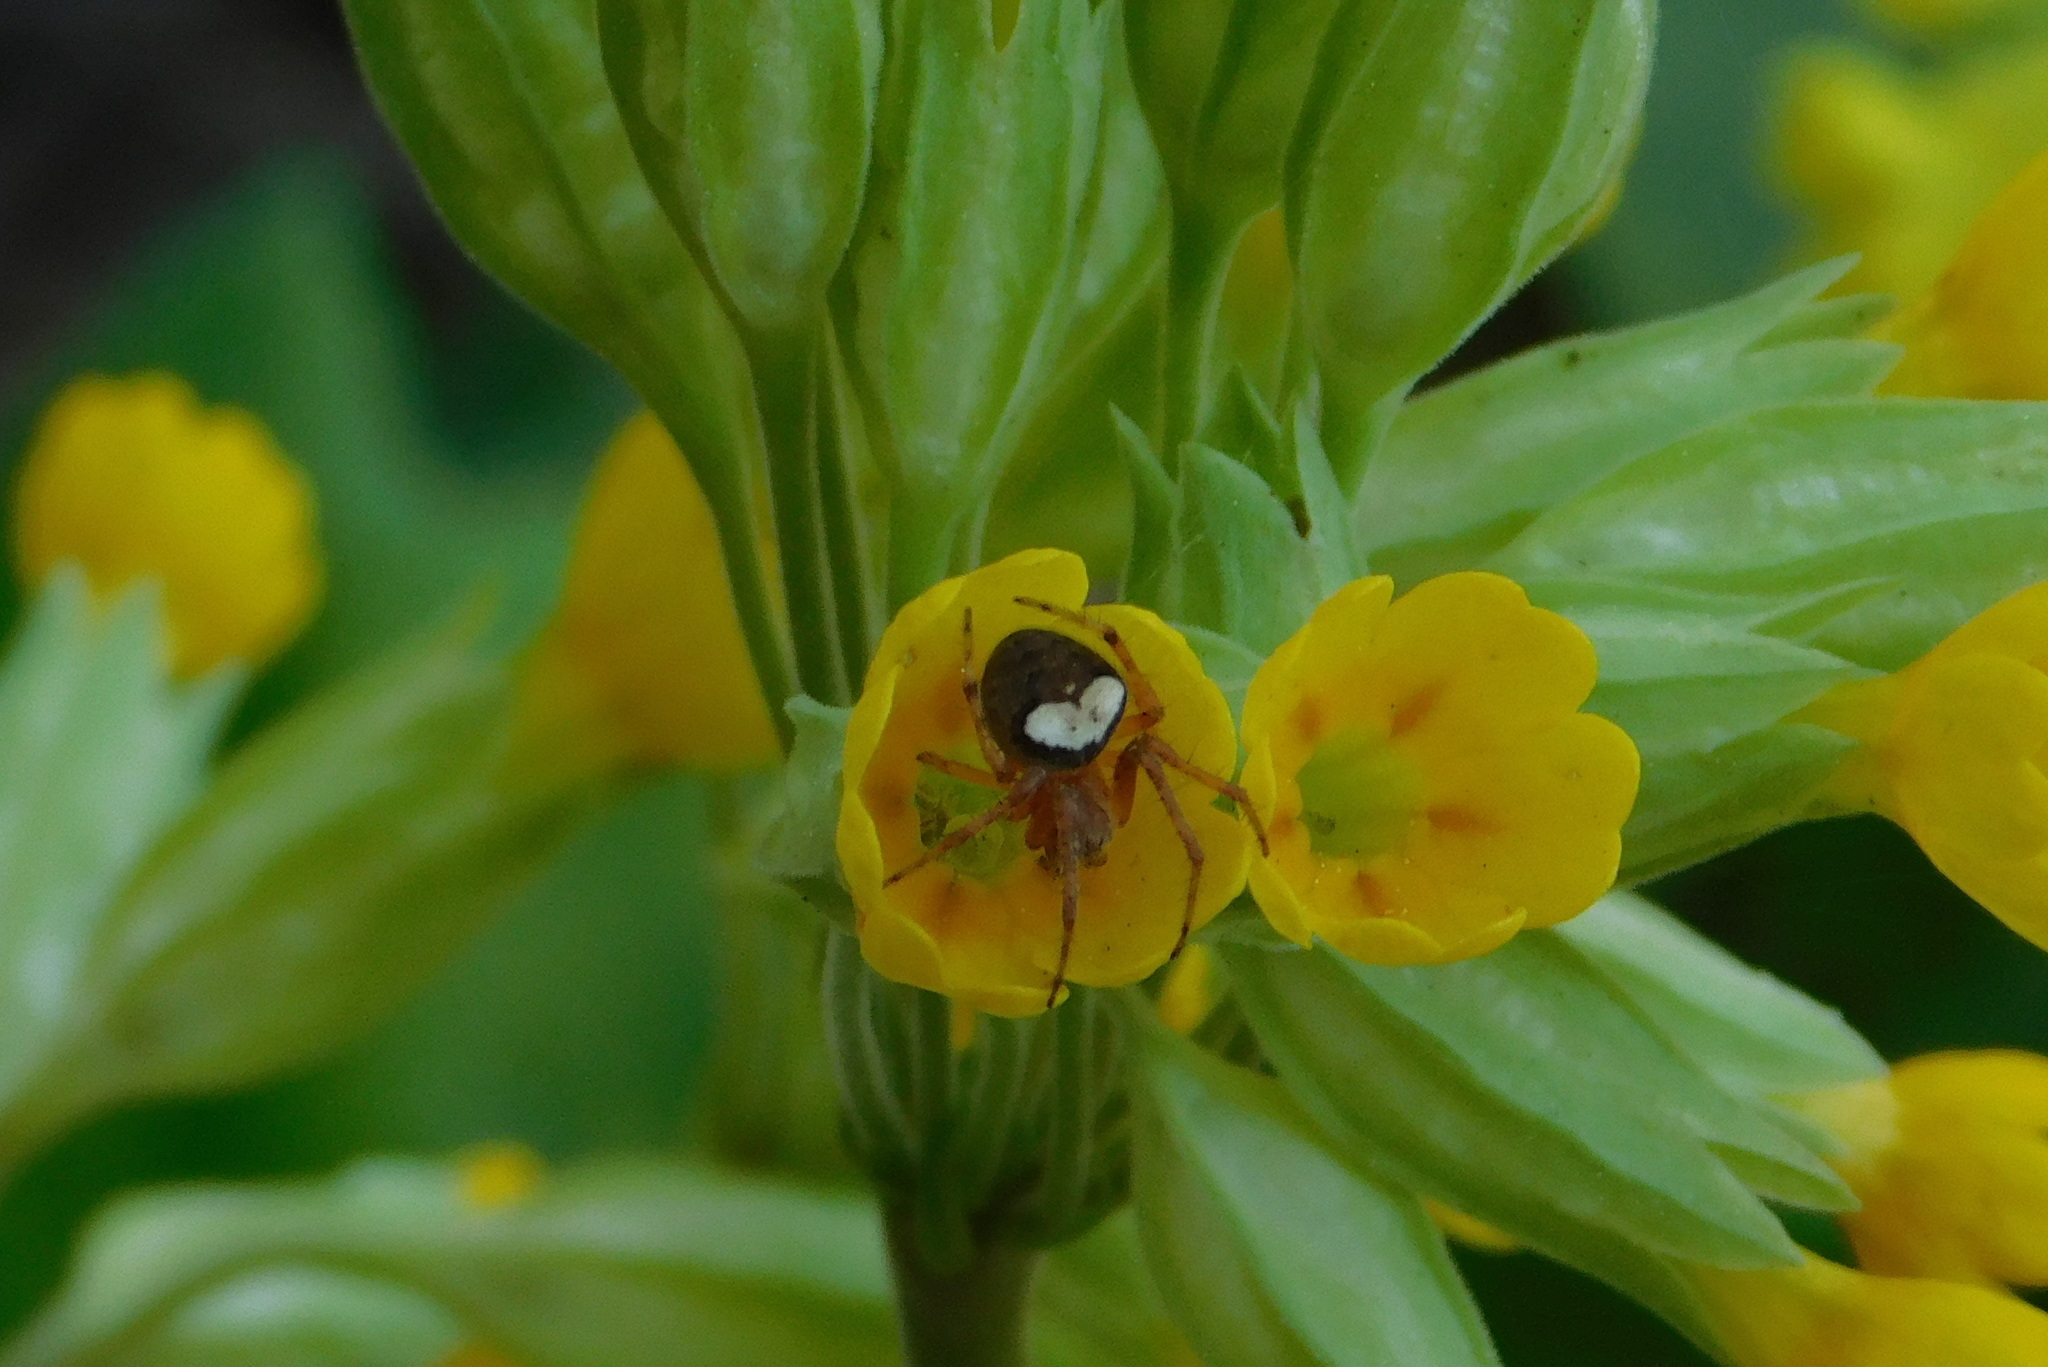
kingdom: Animalia
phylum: Arthropoda
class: Arachnida
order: Araneae
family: Araneidae
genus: Araneus
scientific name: Araneus triguttatus
